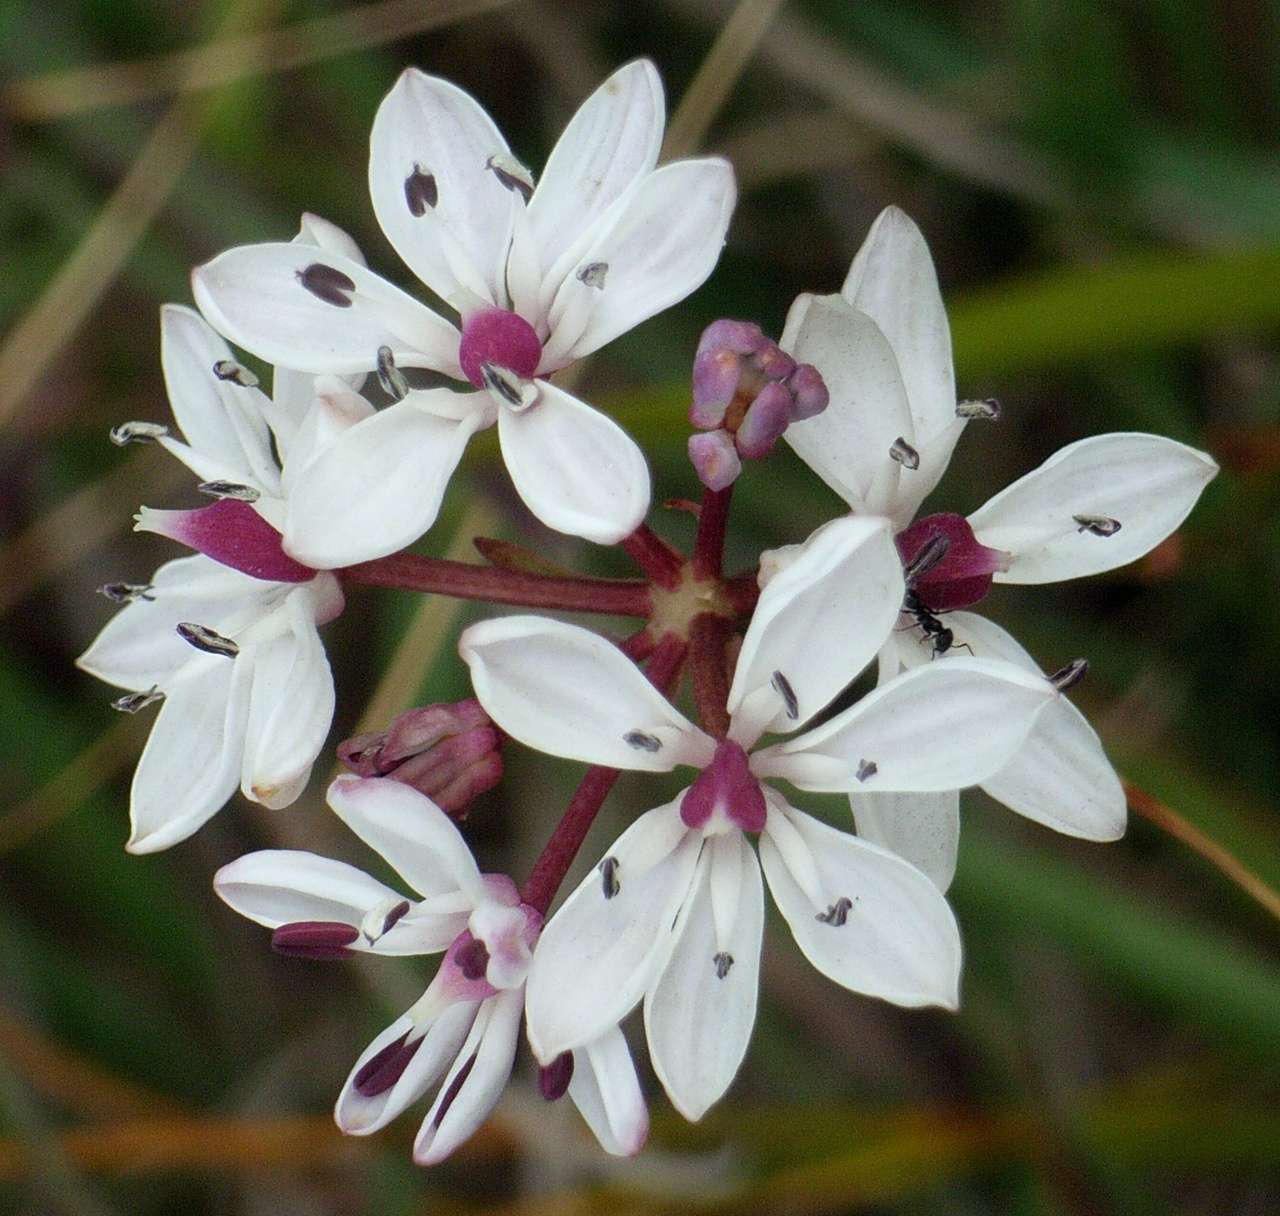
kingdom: Plantae
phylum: Tracheophyta
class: Liliopsida
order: Liliales
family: Colchicaceae
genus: Burchardia
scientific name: Burchardia umbellata
